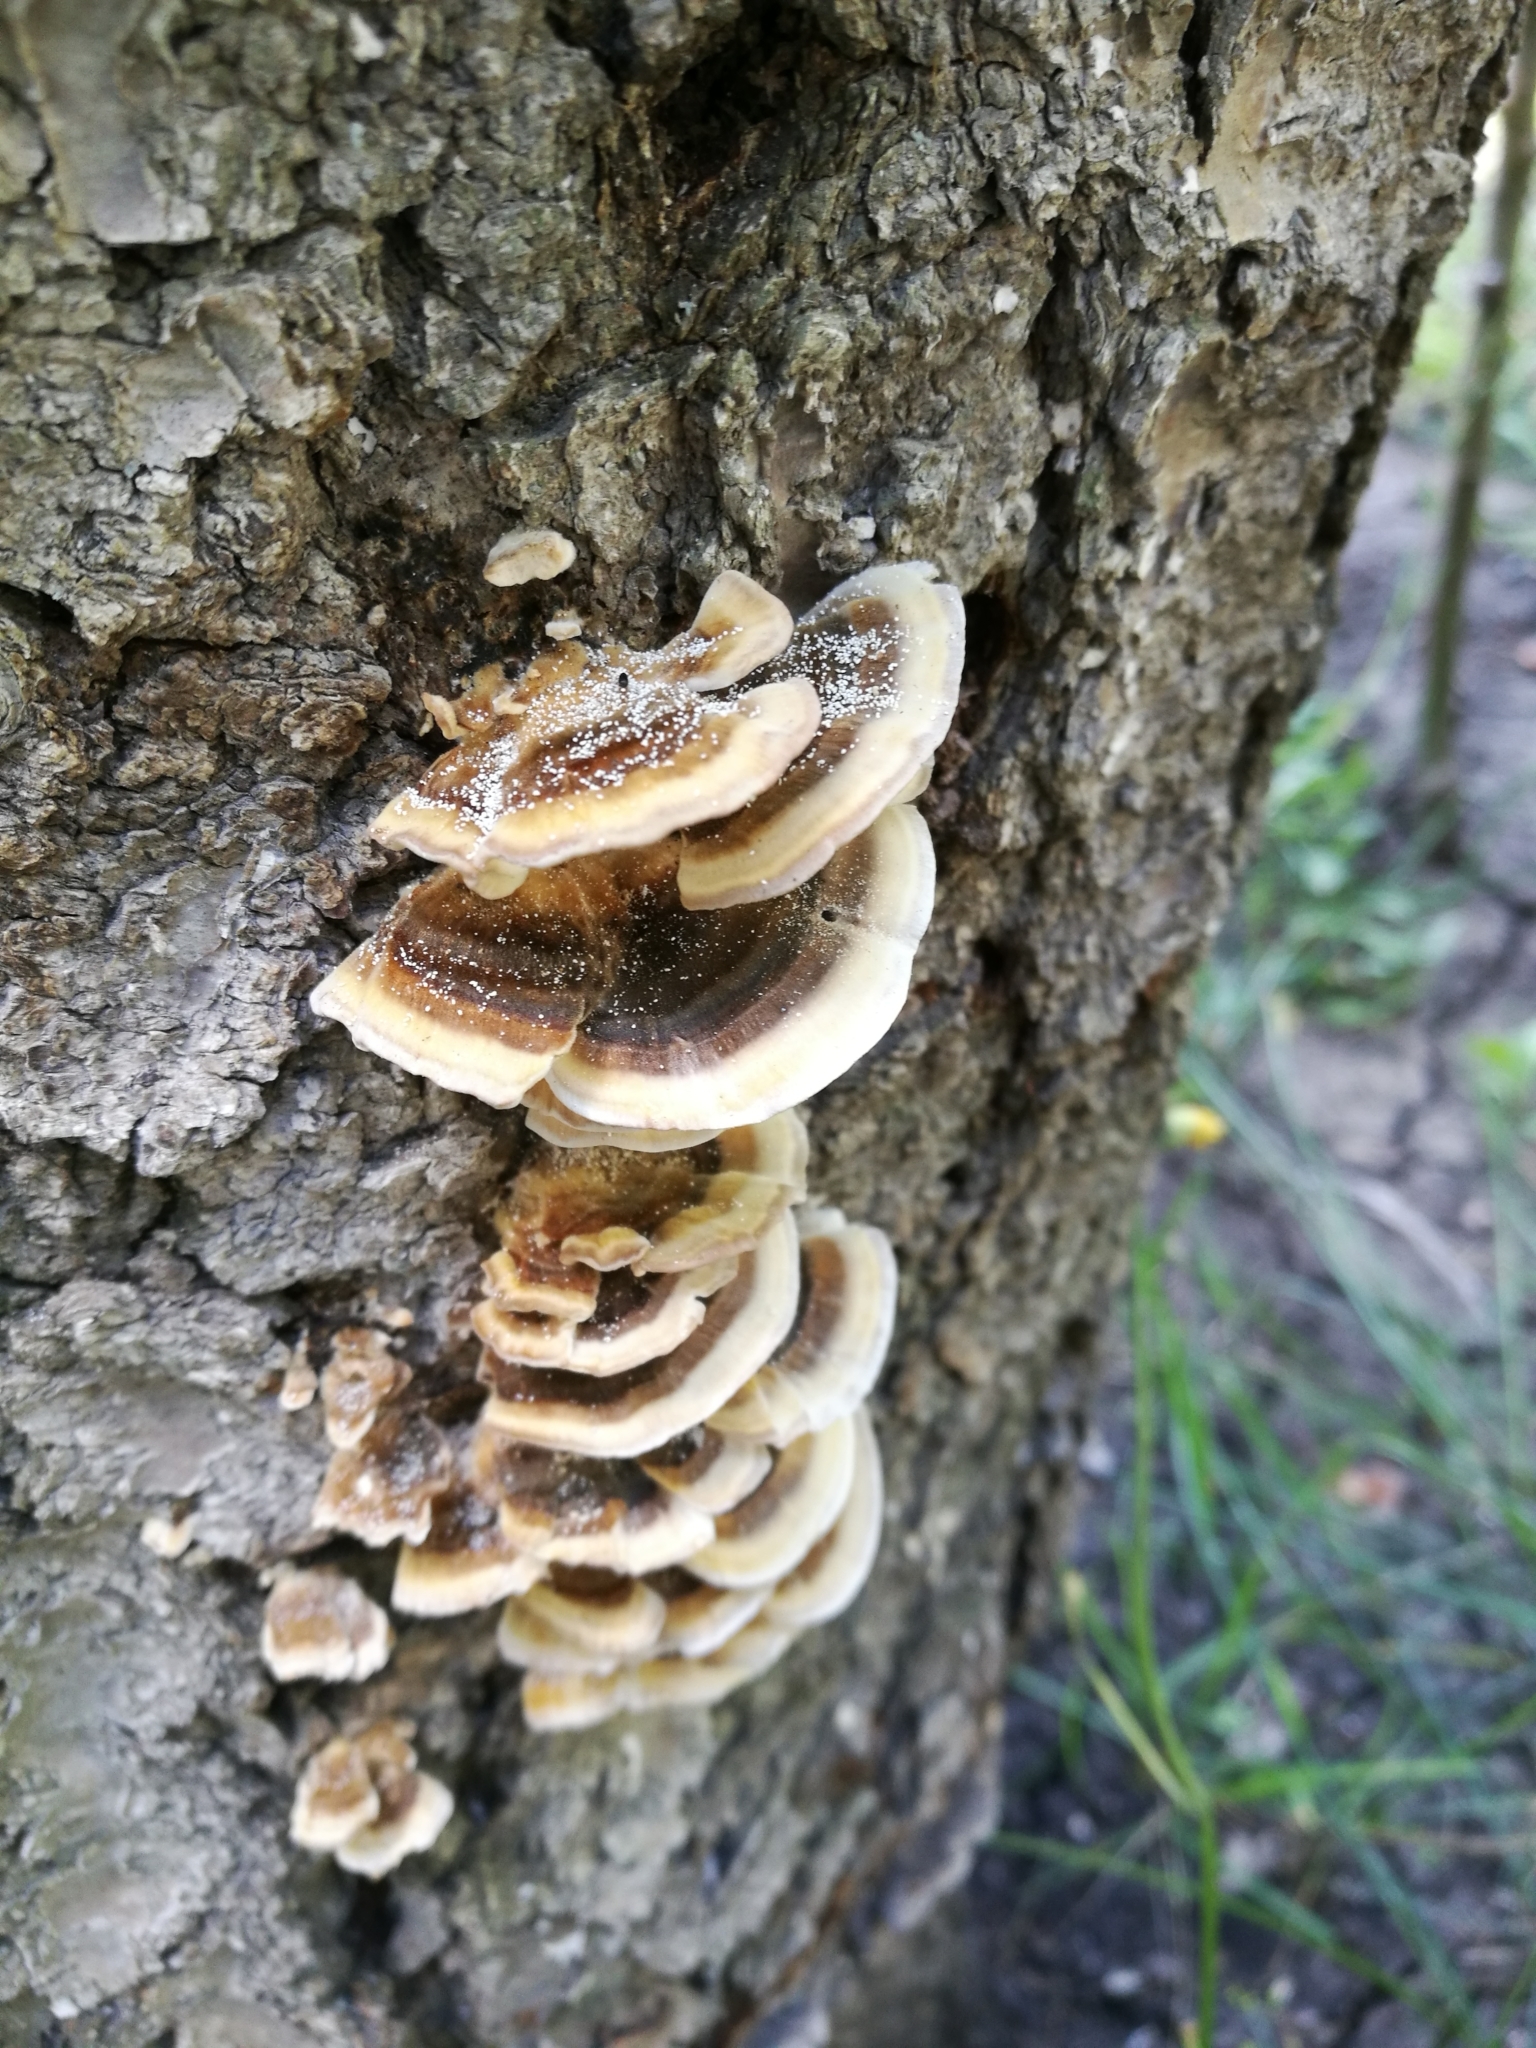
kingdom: Fungi
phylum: Basidiomycota
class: Agaricomycetes
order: Polyporales
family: Polyporaceae
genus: Trametes
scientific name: Trametes versicolor
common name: Turkeytail
